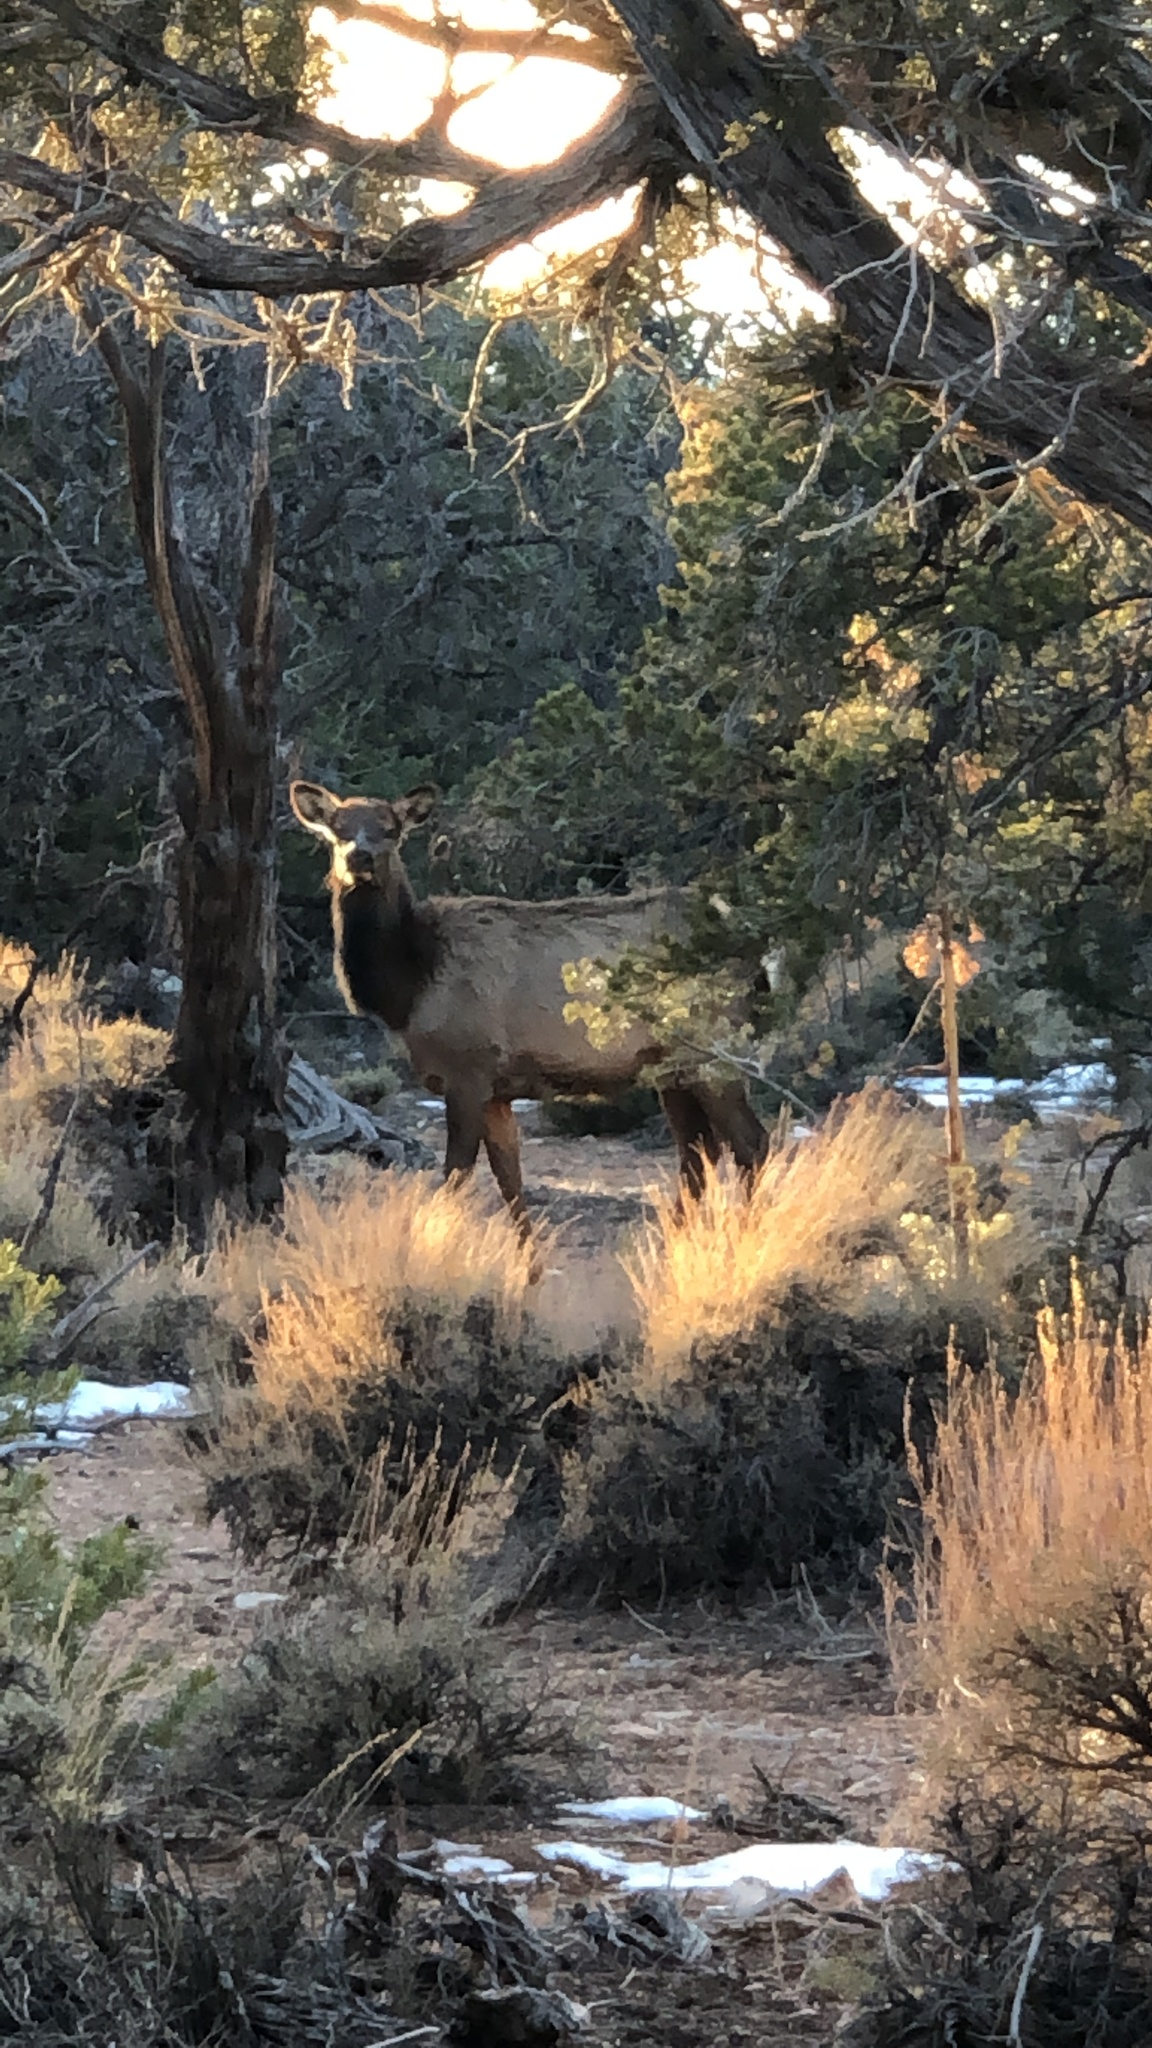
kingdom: Animalia
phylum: Chordata
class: Mammalia
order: Artiodactyla
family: Cervidae
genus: Cervus
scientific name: Cervus elaphus
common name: Red deer
